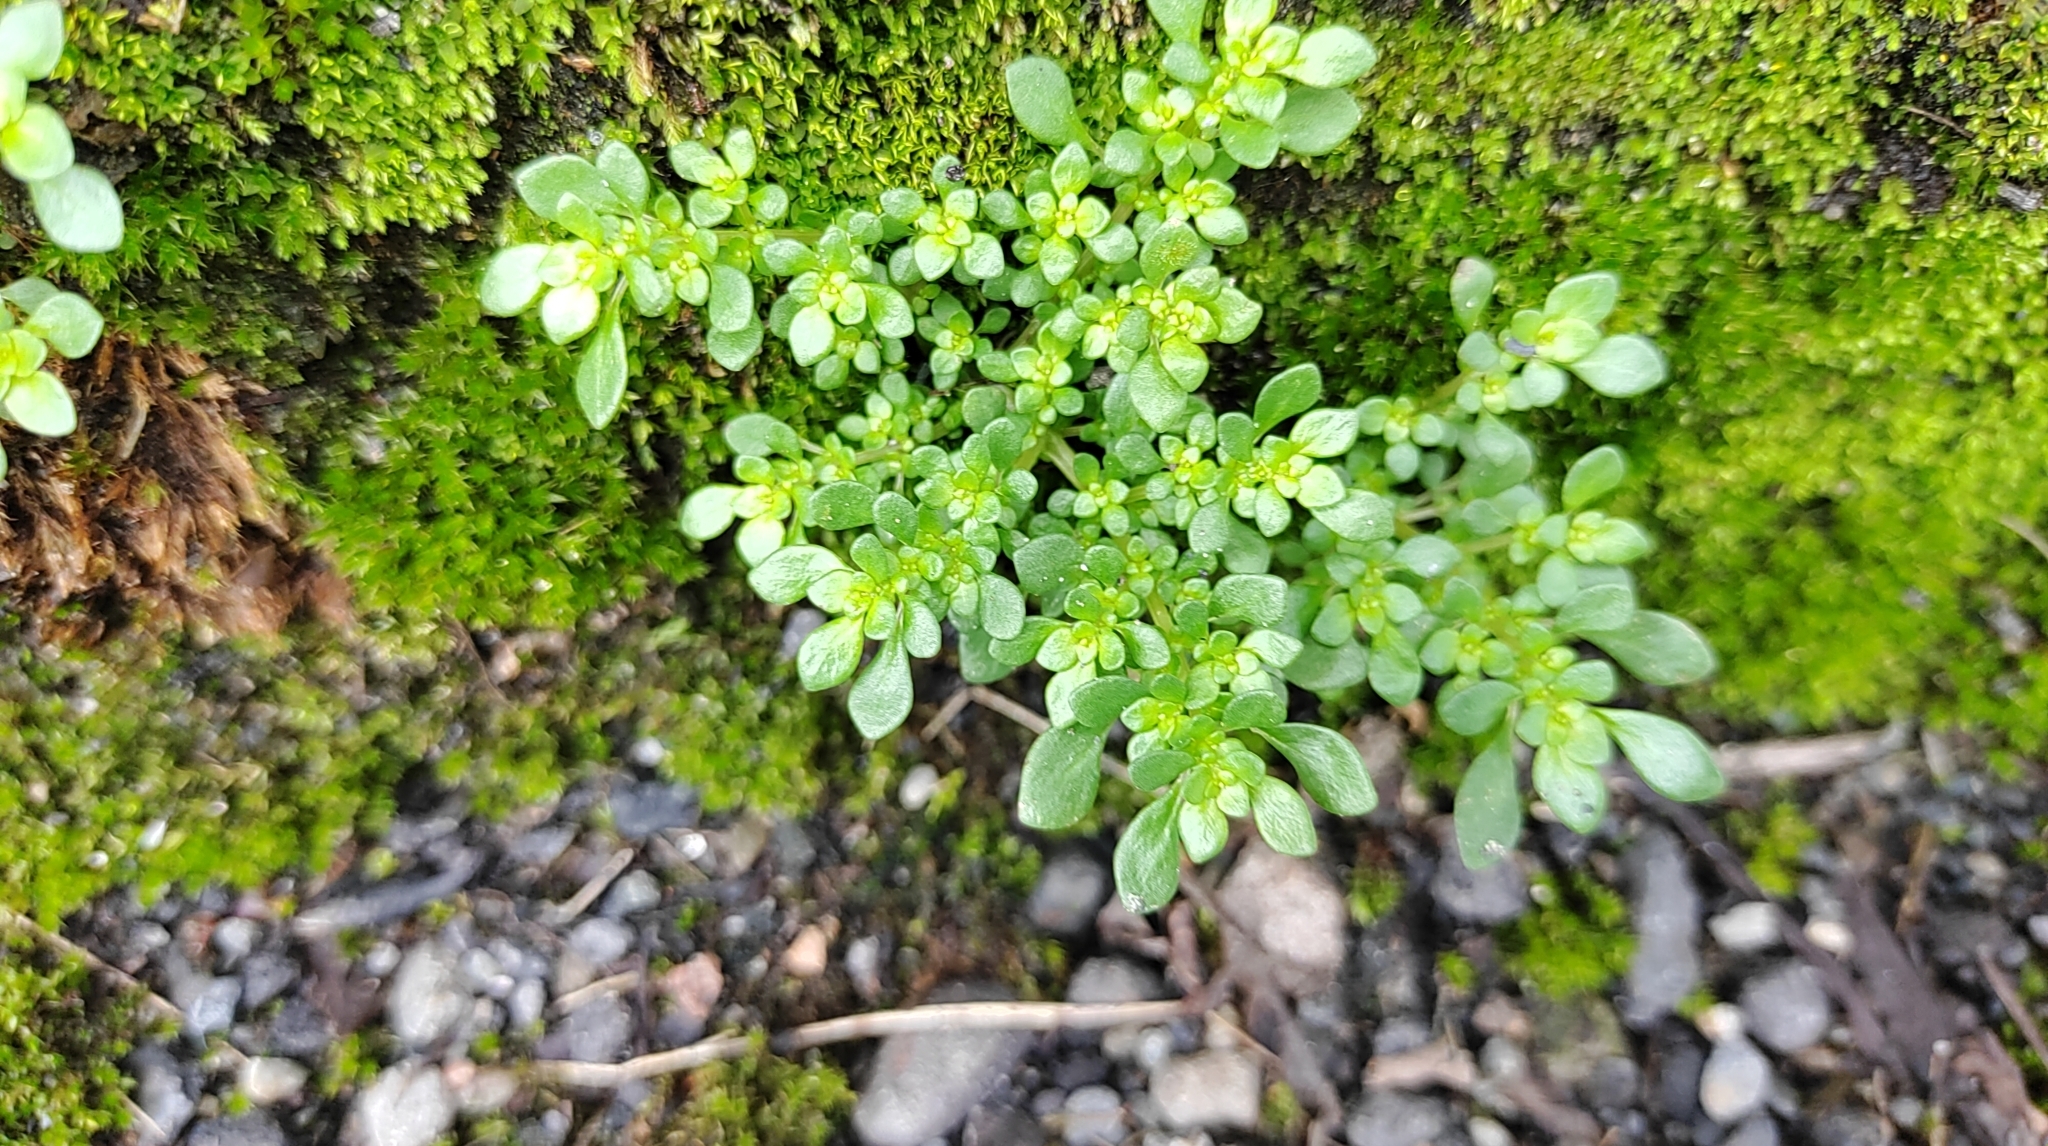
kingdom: Plantae
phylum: Tracheophyta
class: Magnoliopsida
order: Rosales
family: Urticaceae
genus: Pilea
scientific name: Pilea microphylla
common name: Artillery-plant
